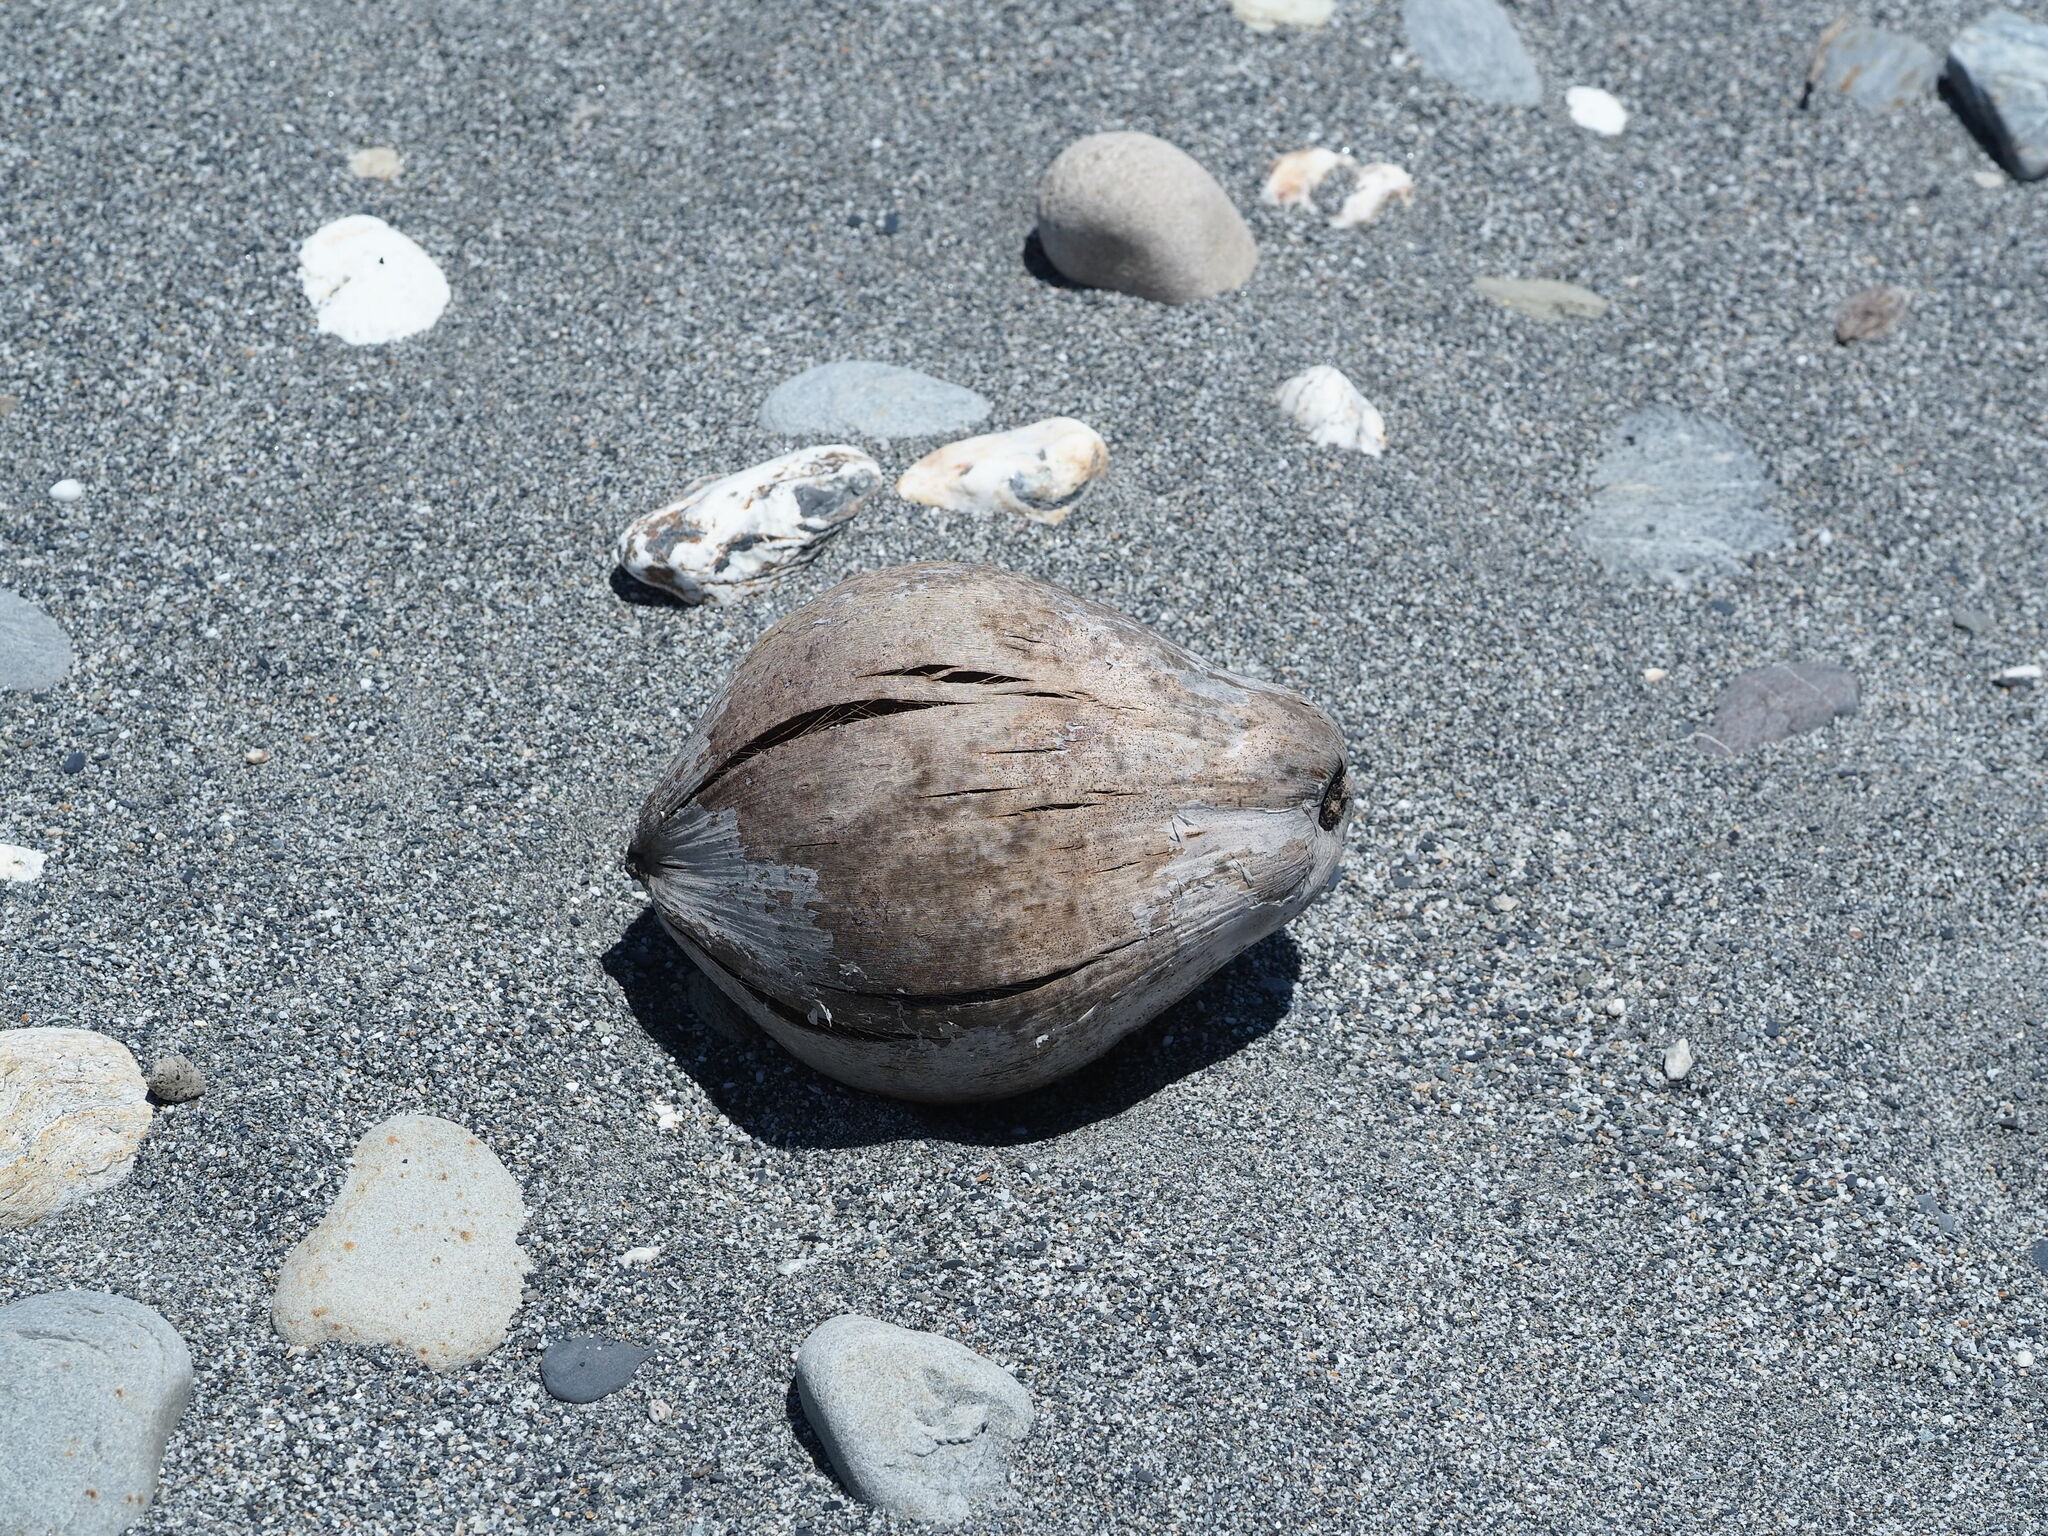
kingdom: Plantae
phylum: Tracheophyta
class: Liliopsida
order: Arecales
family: Arecaceae
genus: Cocos
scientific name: Cocos nucifera
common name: Coconut palm
